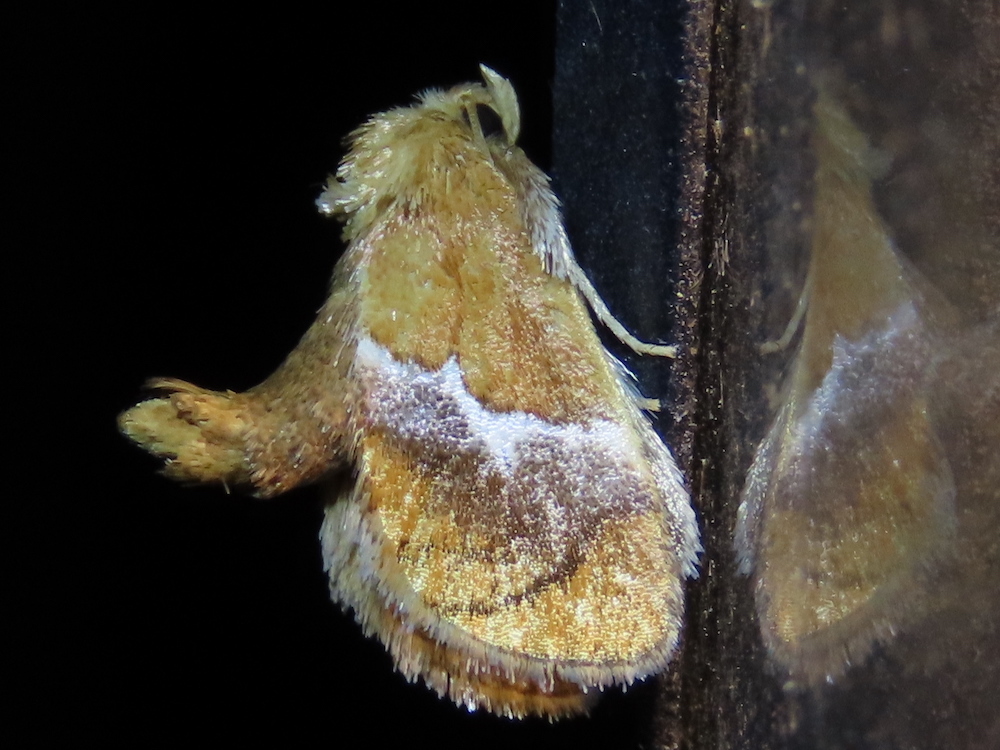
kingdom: Animalia
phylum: Arthropoda
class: Insecta
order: Lepidoptera
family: Limacodidae
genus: Lithacodes
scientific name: Lithacodes fasciola
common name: Yellow-shouldered slug moth
